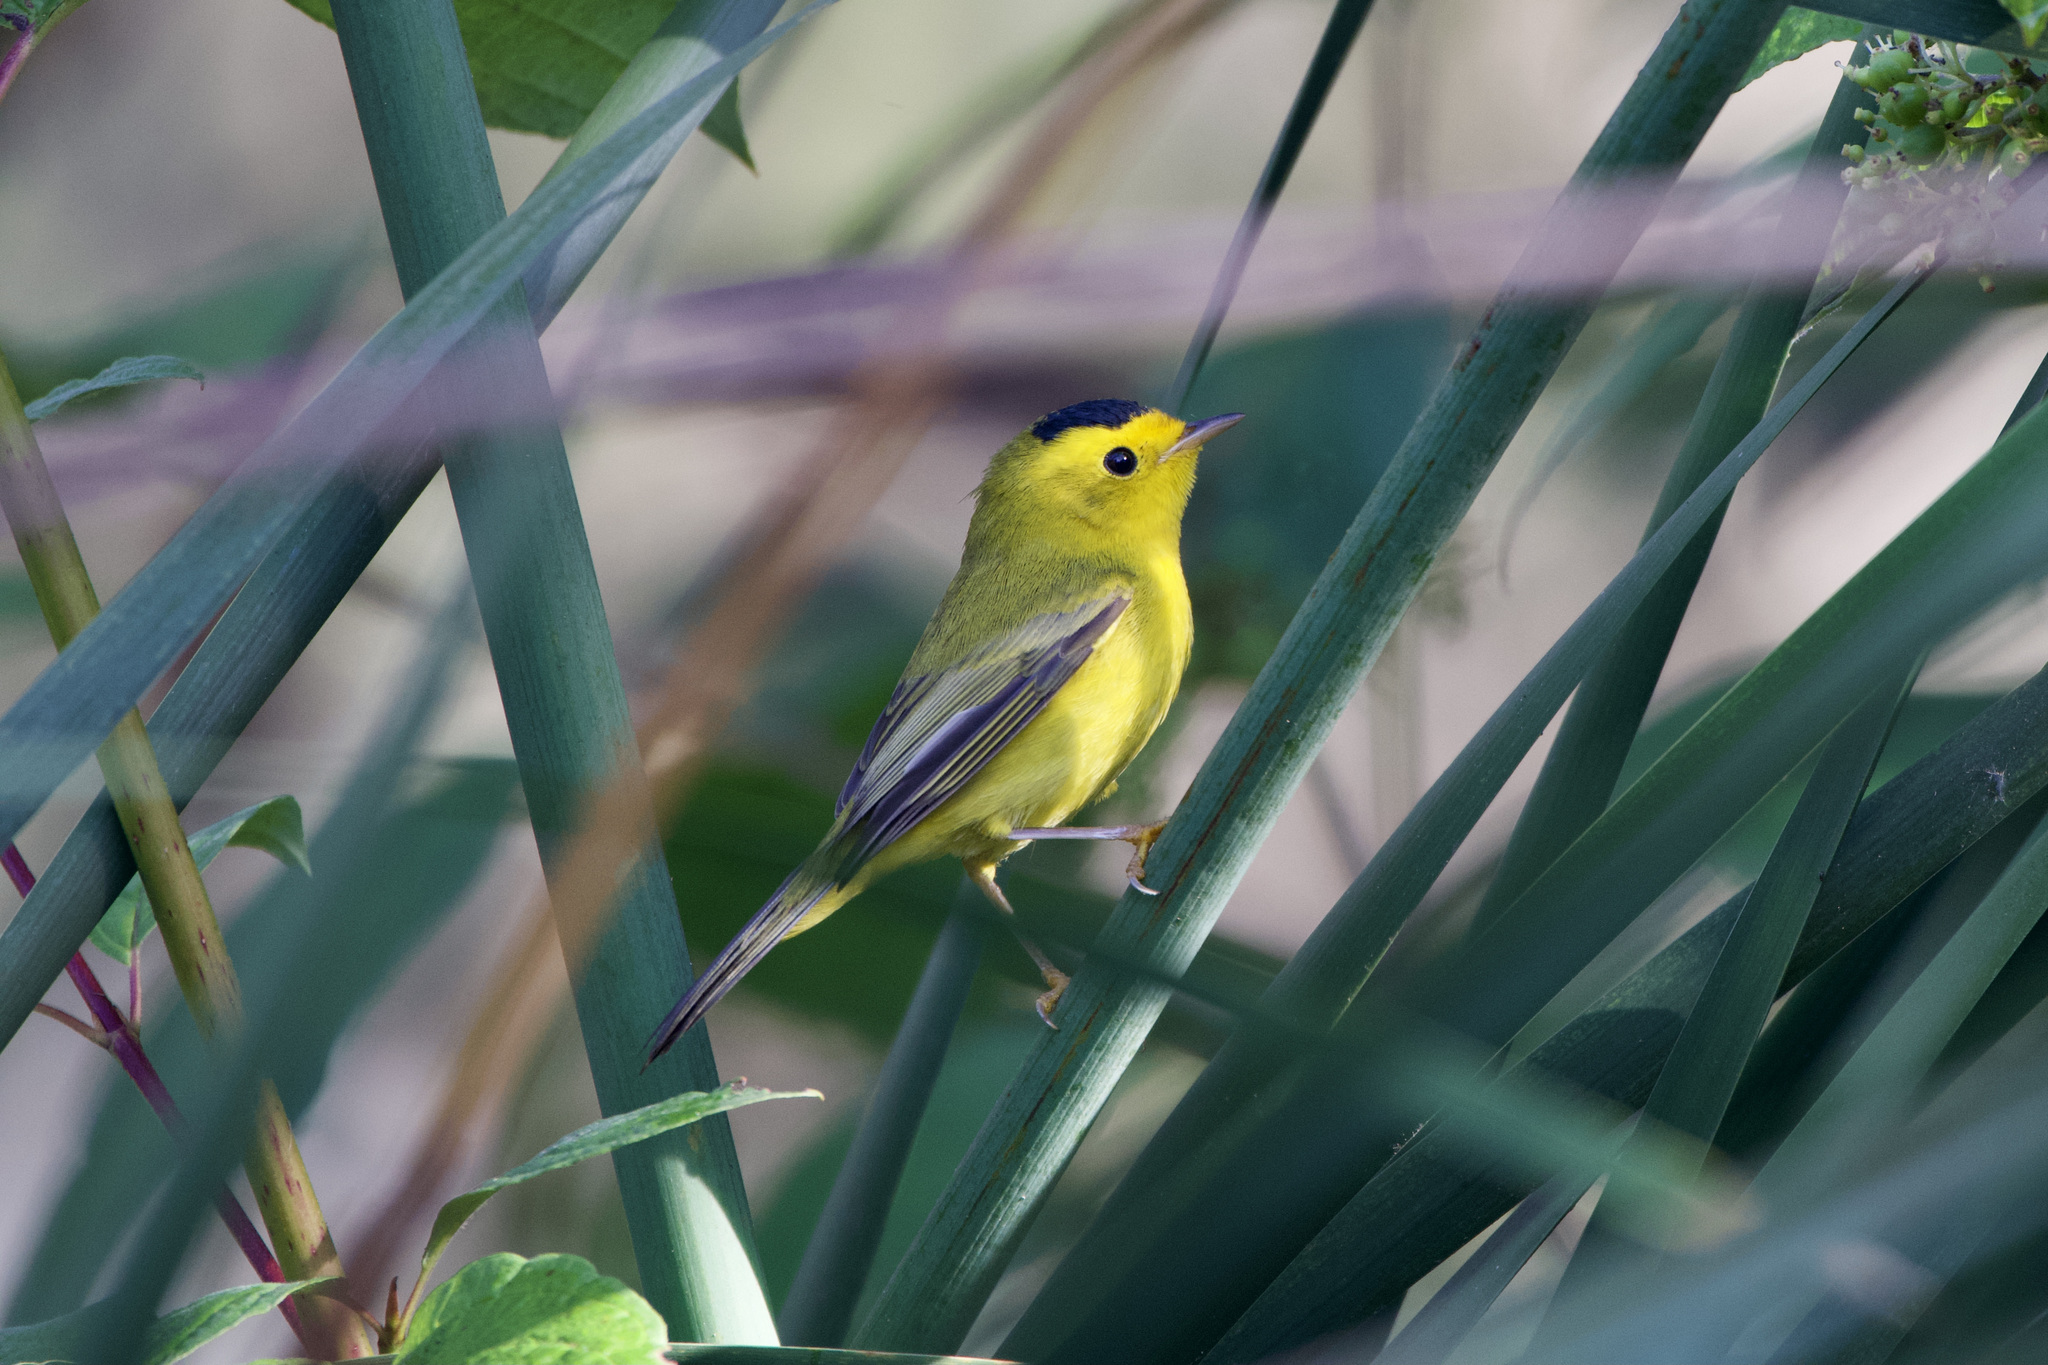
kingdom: Animalia
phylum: Chordata
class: Aves
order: Passeriformes
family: Parulidae
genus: Cardellina
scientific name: Cardellina pusilla
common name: Wilson's warbler
